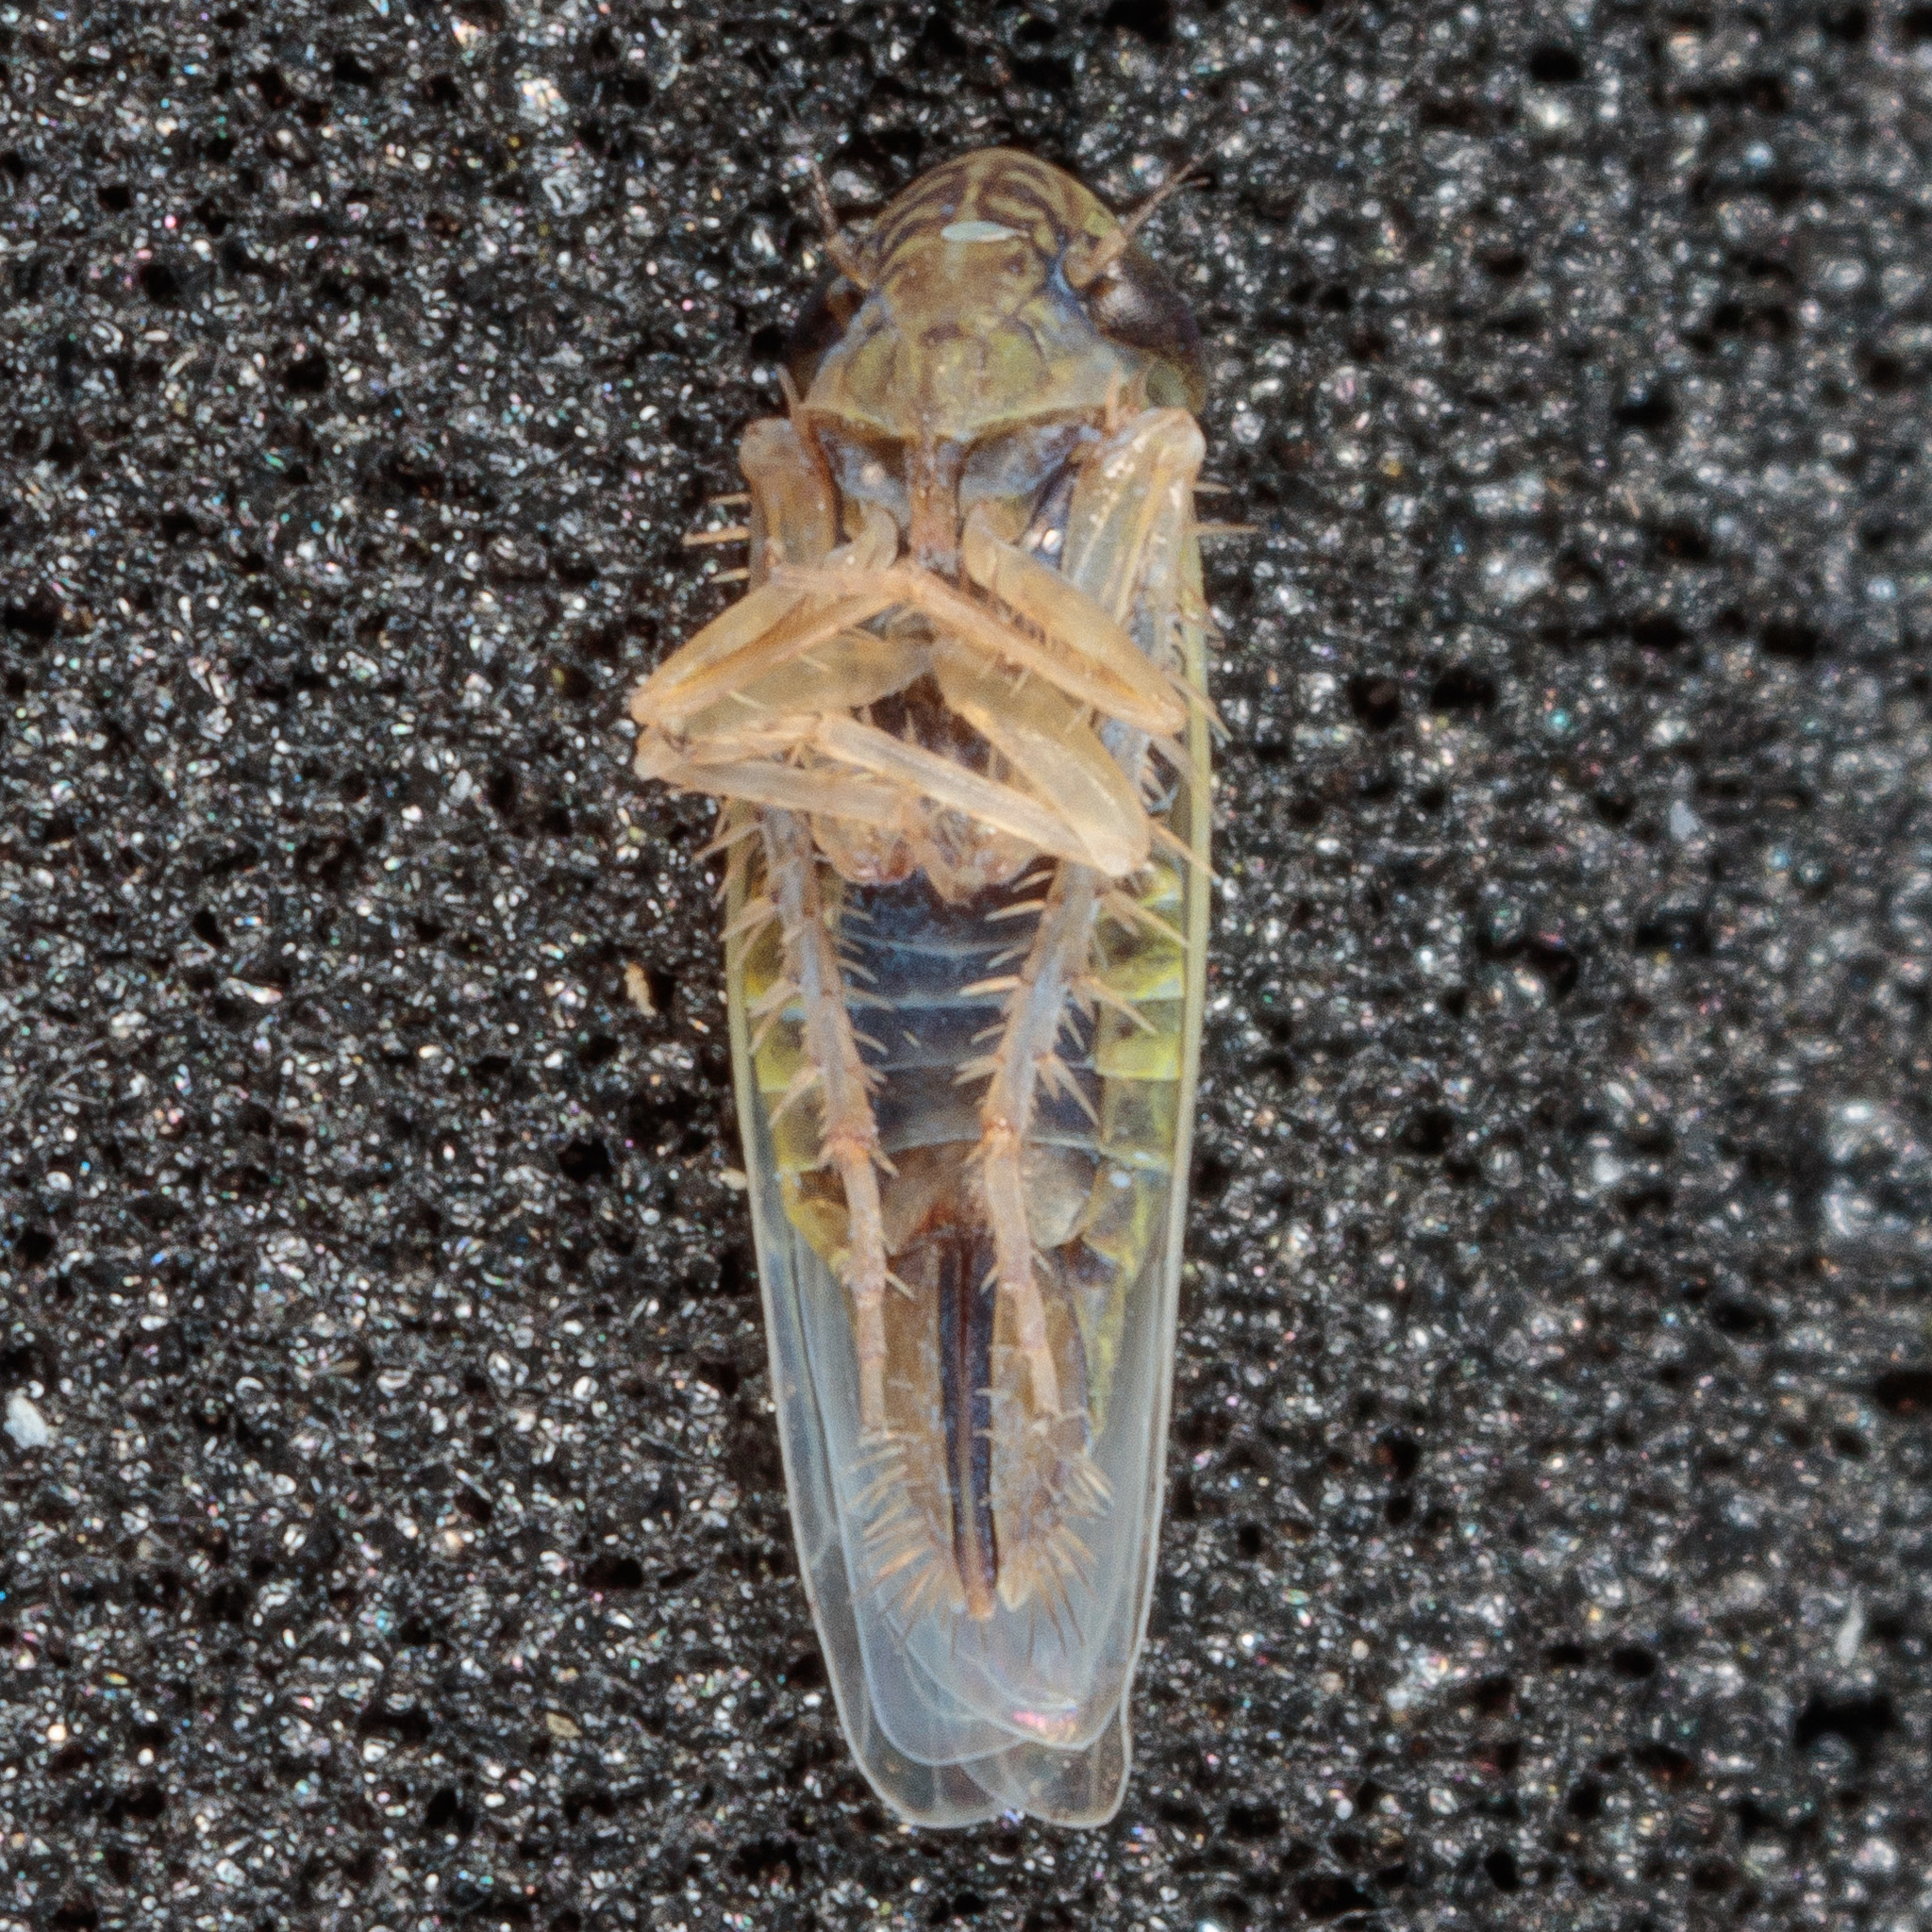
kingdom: Animalia
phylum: Arthropoda
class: Insecta
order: Hemiptera
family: Cicadellidae
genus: Graminella
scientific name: Graminella nigrifrons
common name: Blackfaced leafhopper
